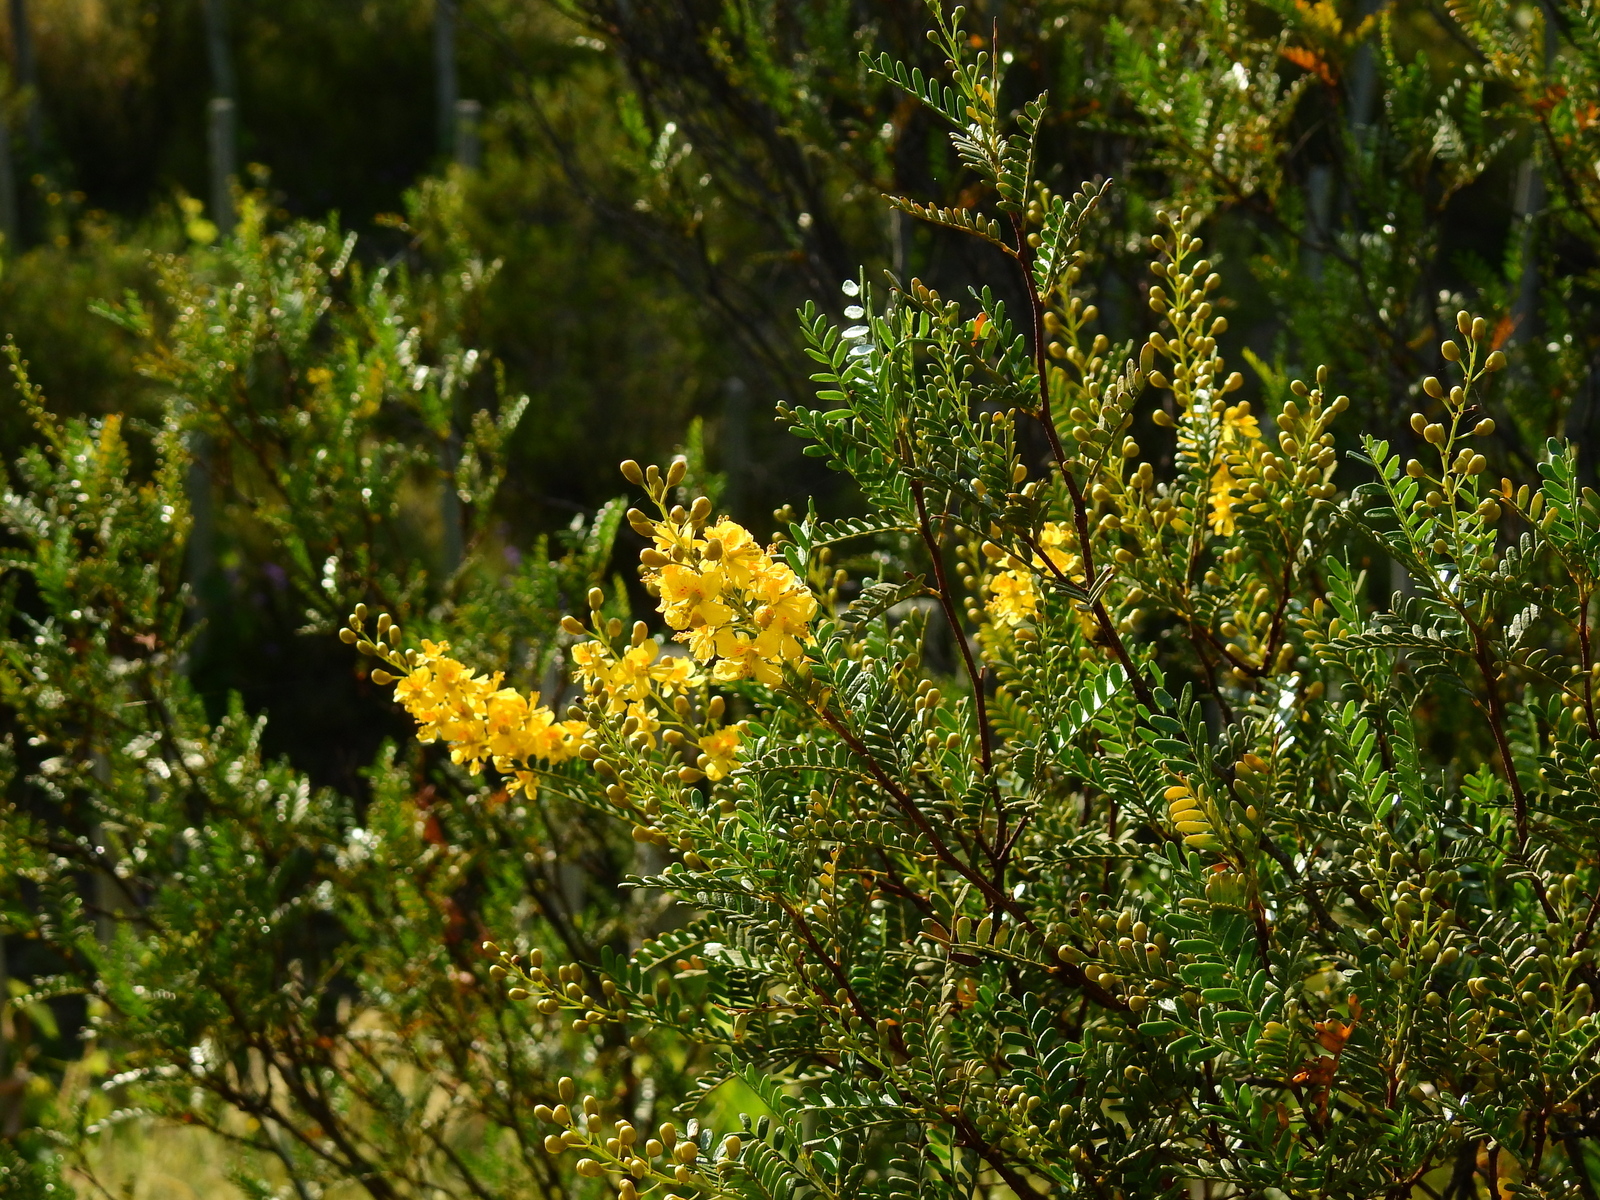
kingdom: Plantae
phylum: Tracheophyta
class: Magnoliopsida
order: Fabales
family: Fabaceae
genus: Zuccagnia
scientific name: Zuccagnia punctata
